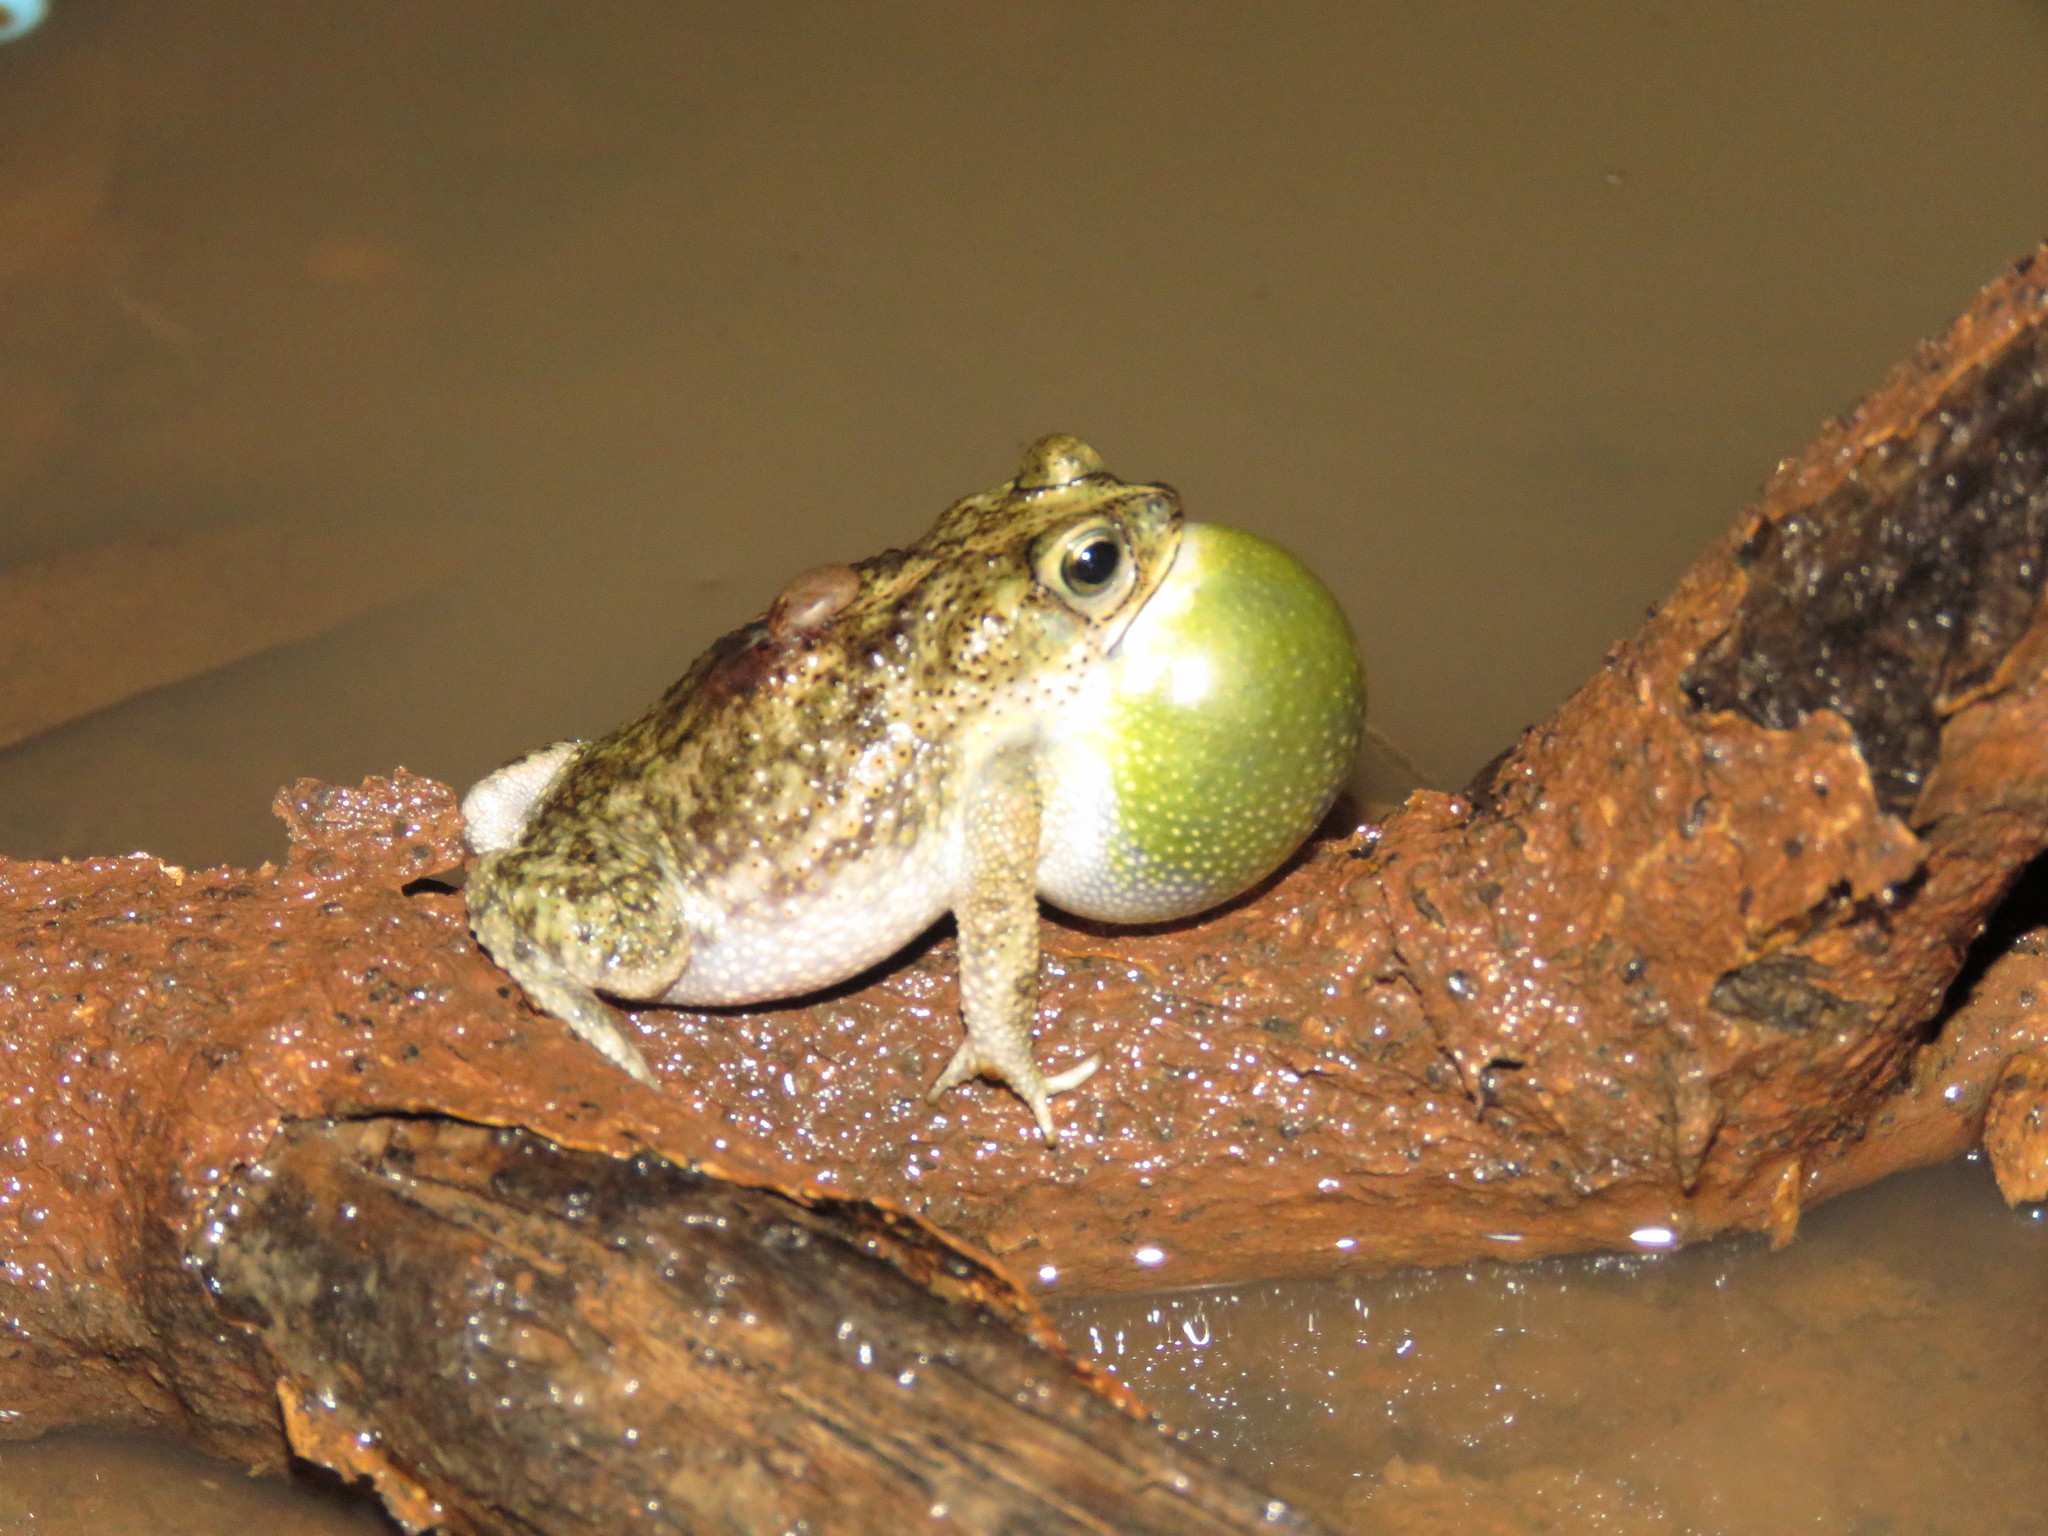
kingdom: Animalia
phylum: Chordata
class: Amphibia
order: Anura
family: Bufonidae
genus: Rhinella
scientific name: Rhinella major
